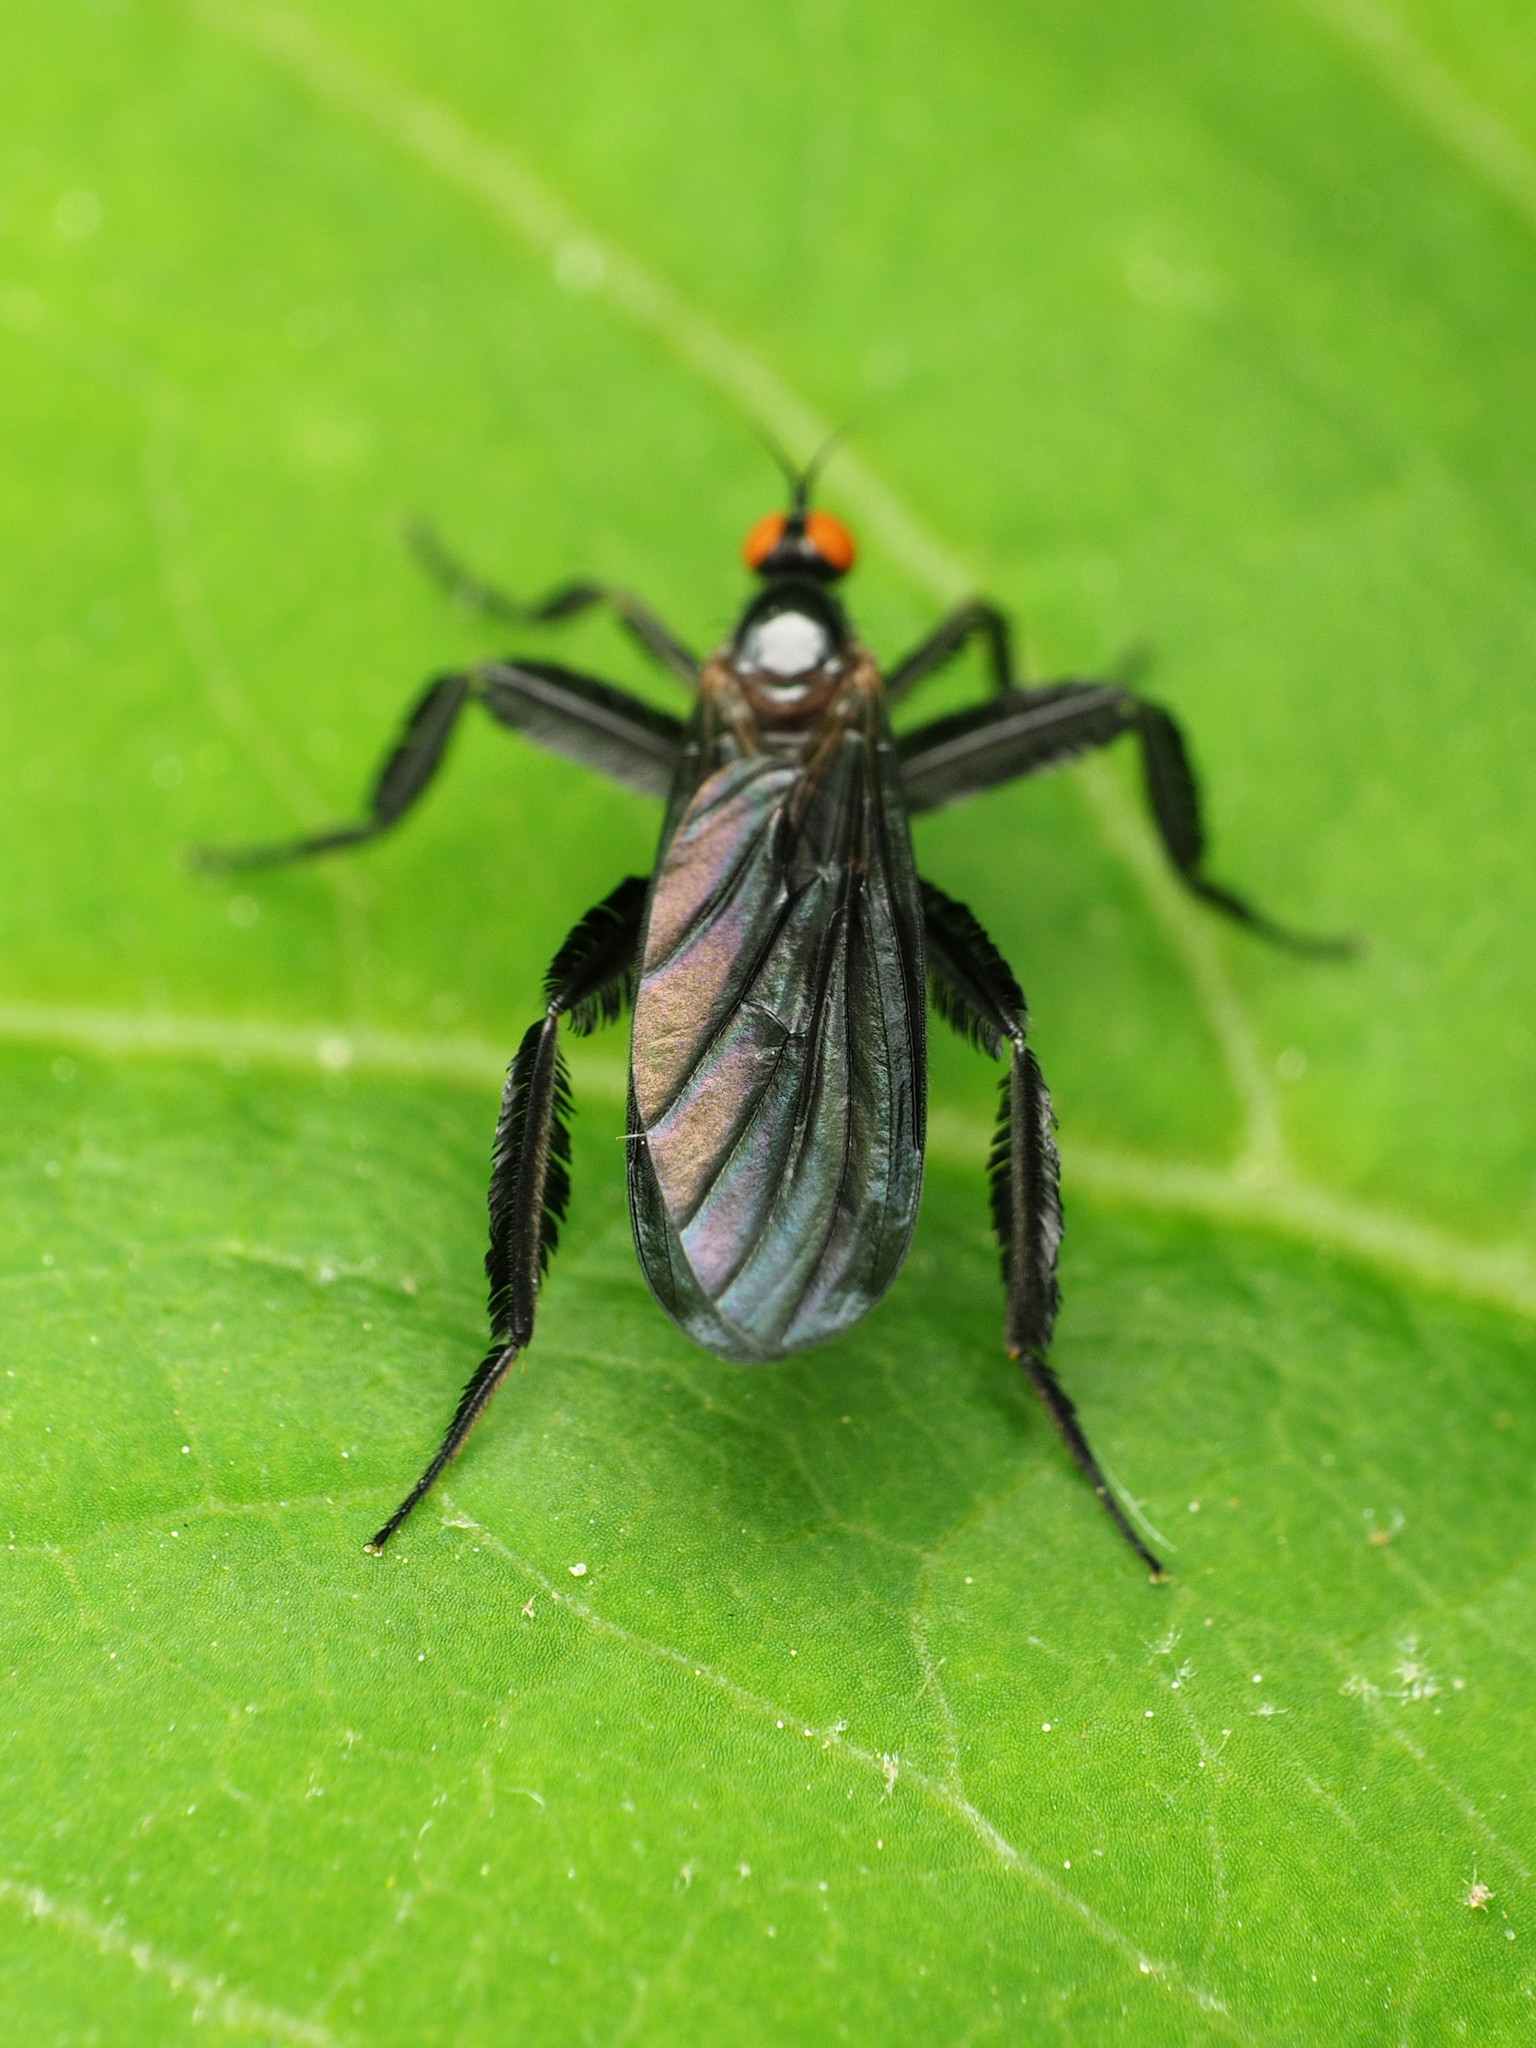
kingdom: Animalia
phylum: Arthropoda
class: Insecta
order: Diptera
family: Empididae
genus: Rhamphomyia
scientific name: Rhamphomyia longicauda
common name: Long-tailed dance fly
